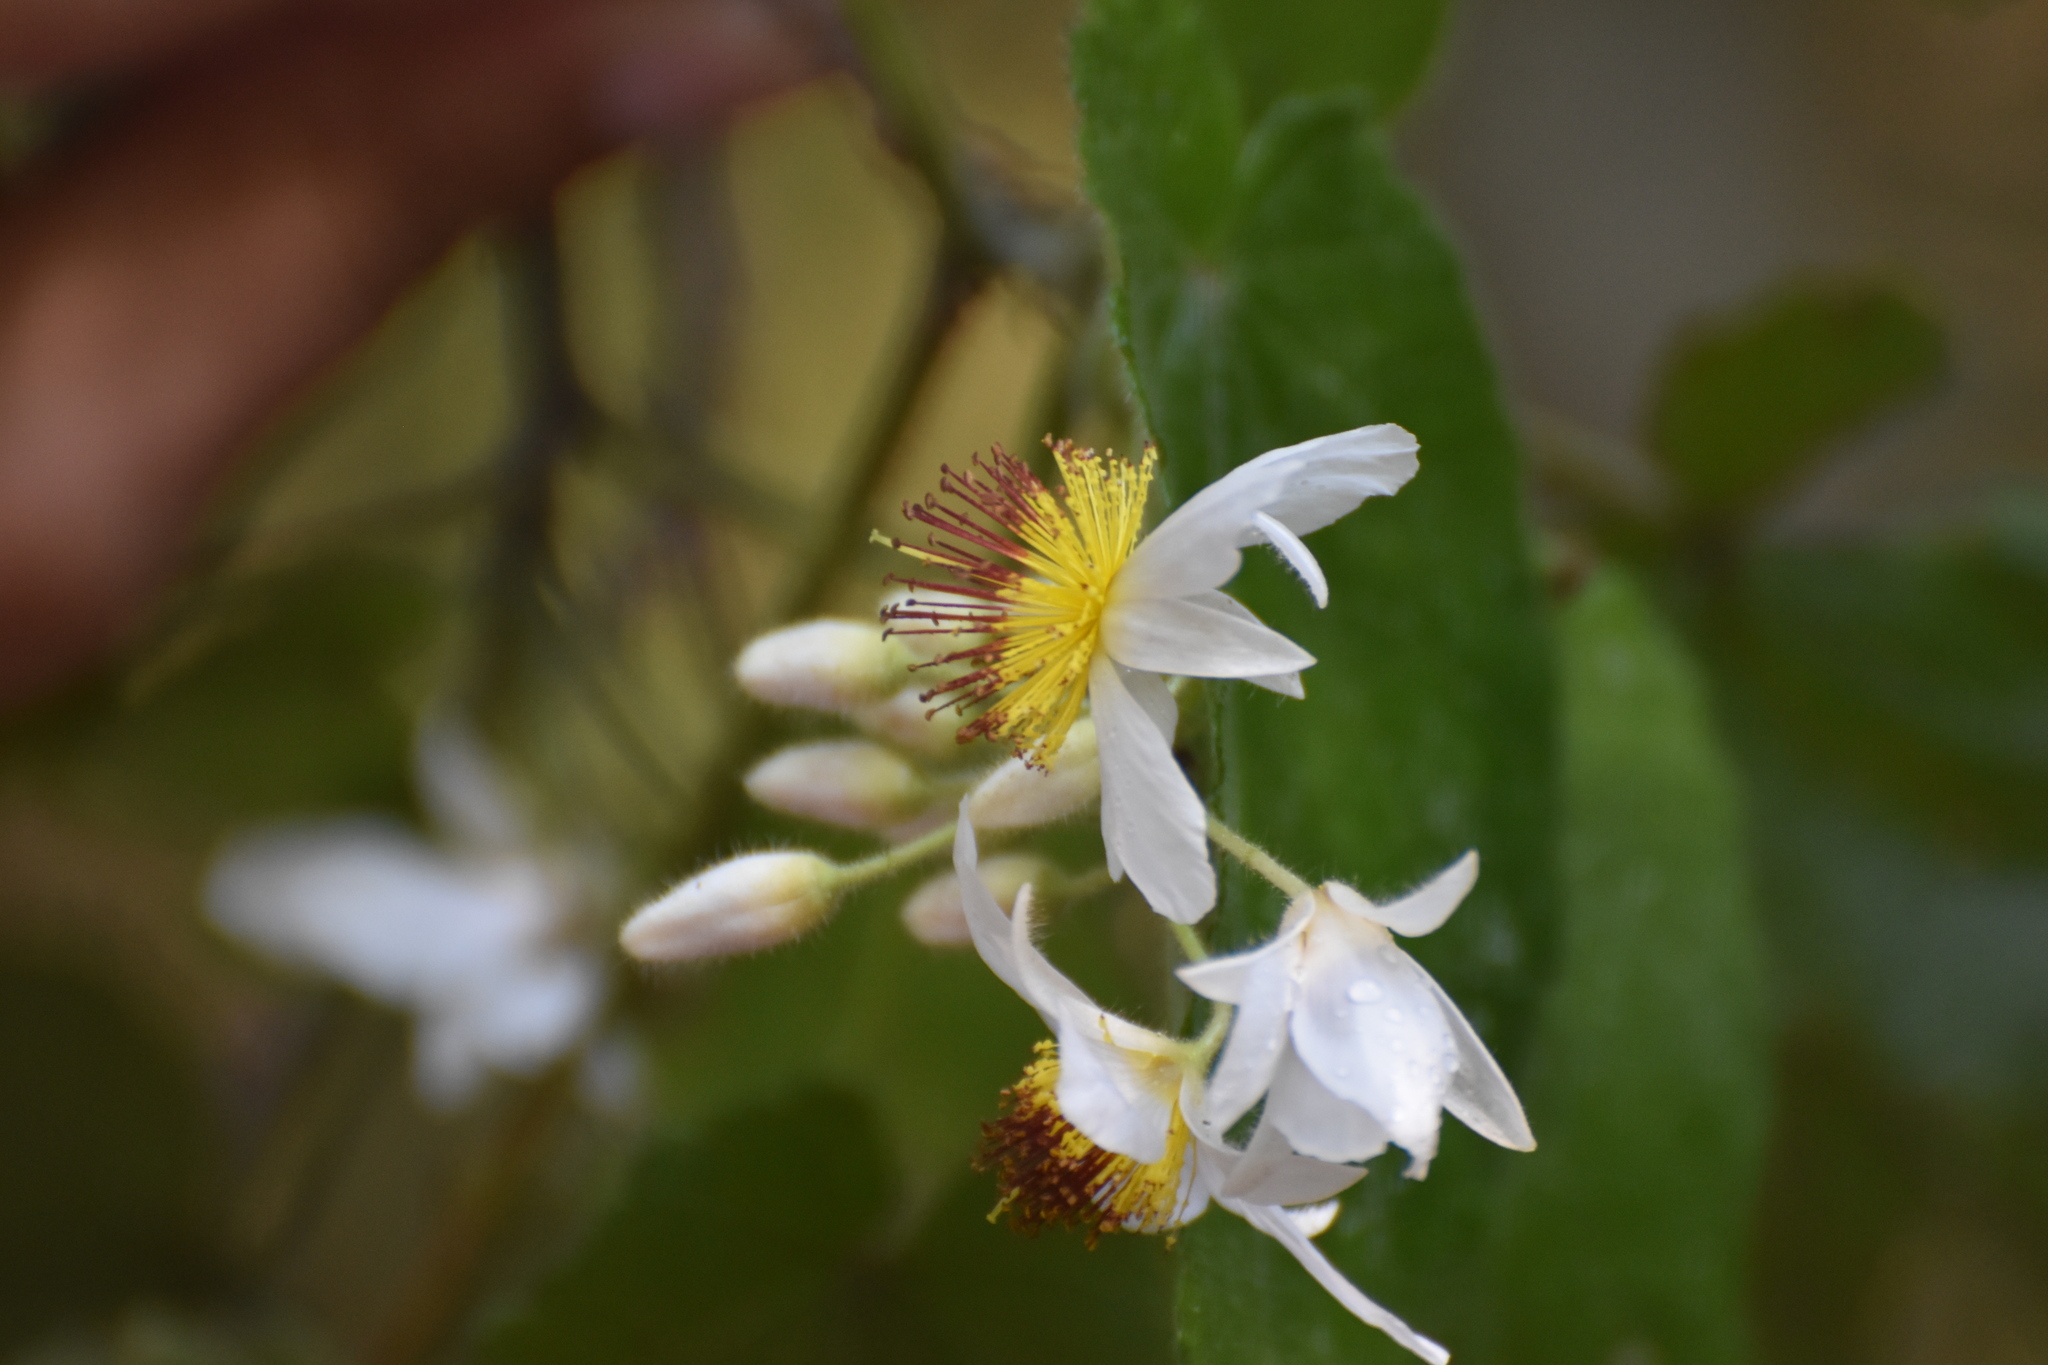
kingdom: Plantae
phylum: Tracheophyta
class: Magnoliopsida
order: Malvales
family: Malvaceae
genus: Sparrmannia
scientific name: Sparrmannia africana
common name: African-hemp
